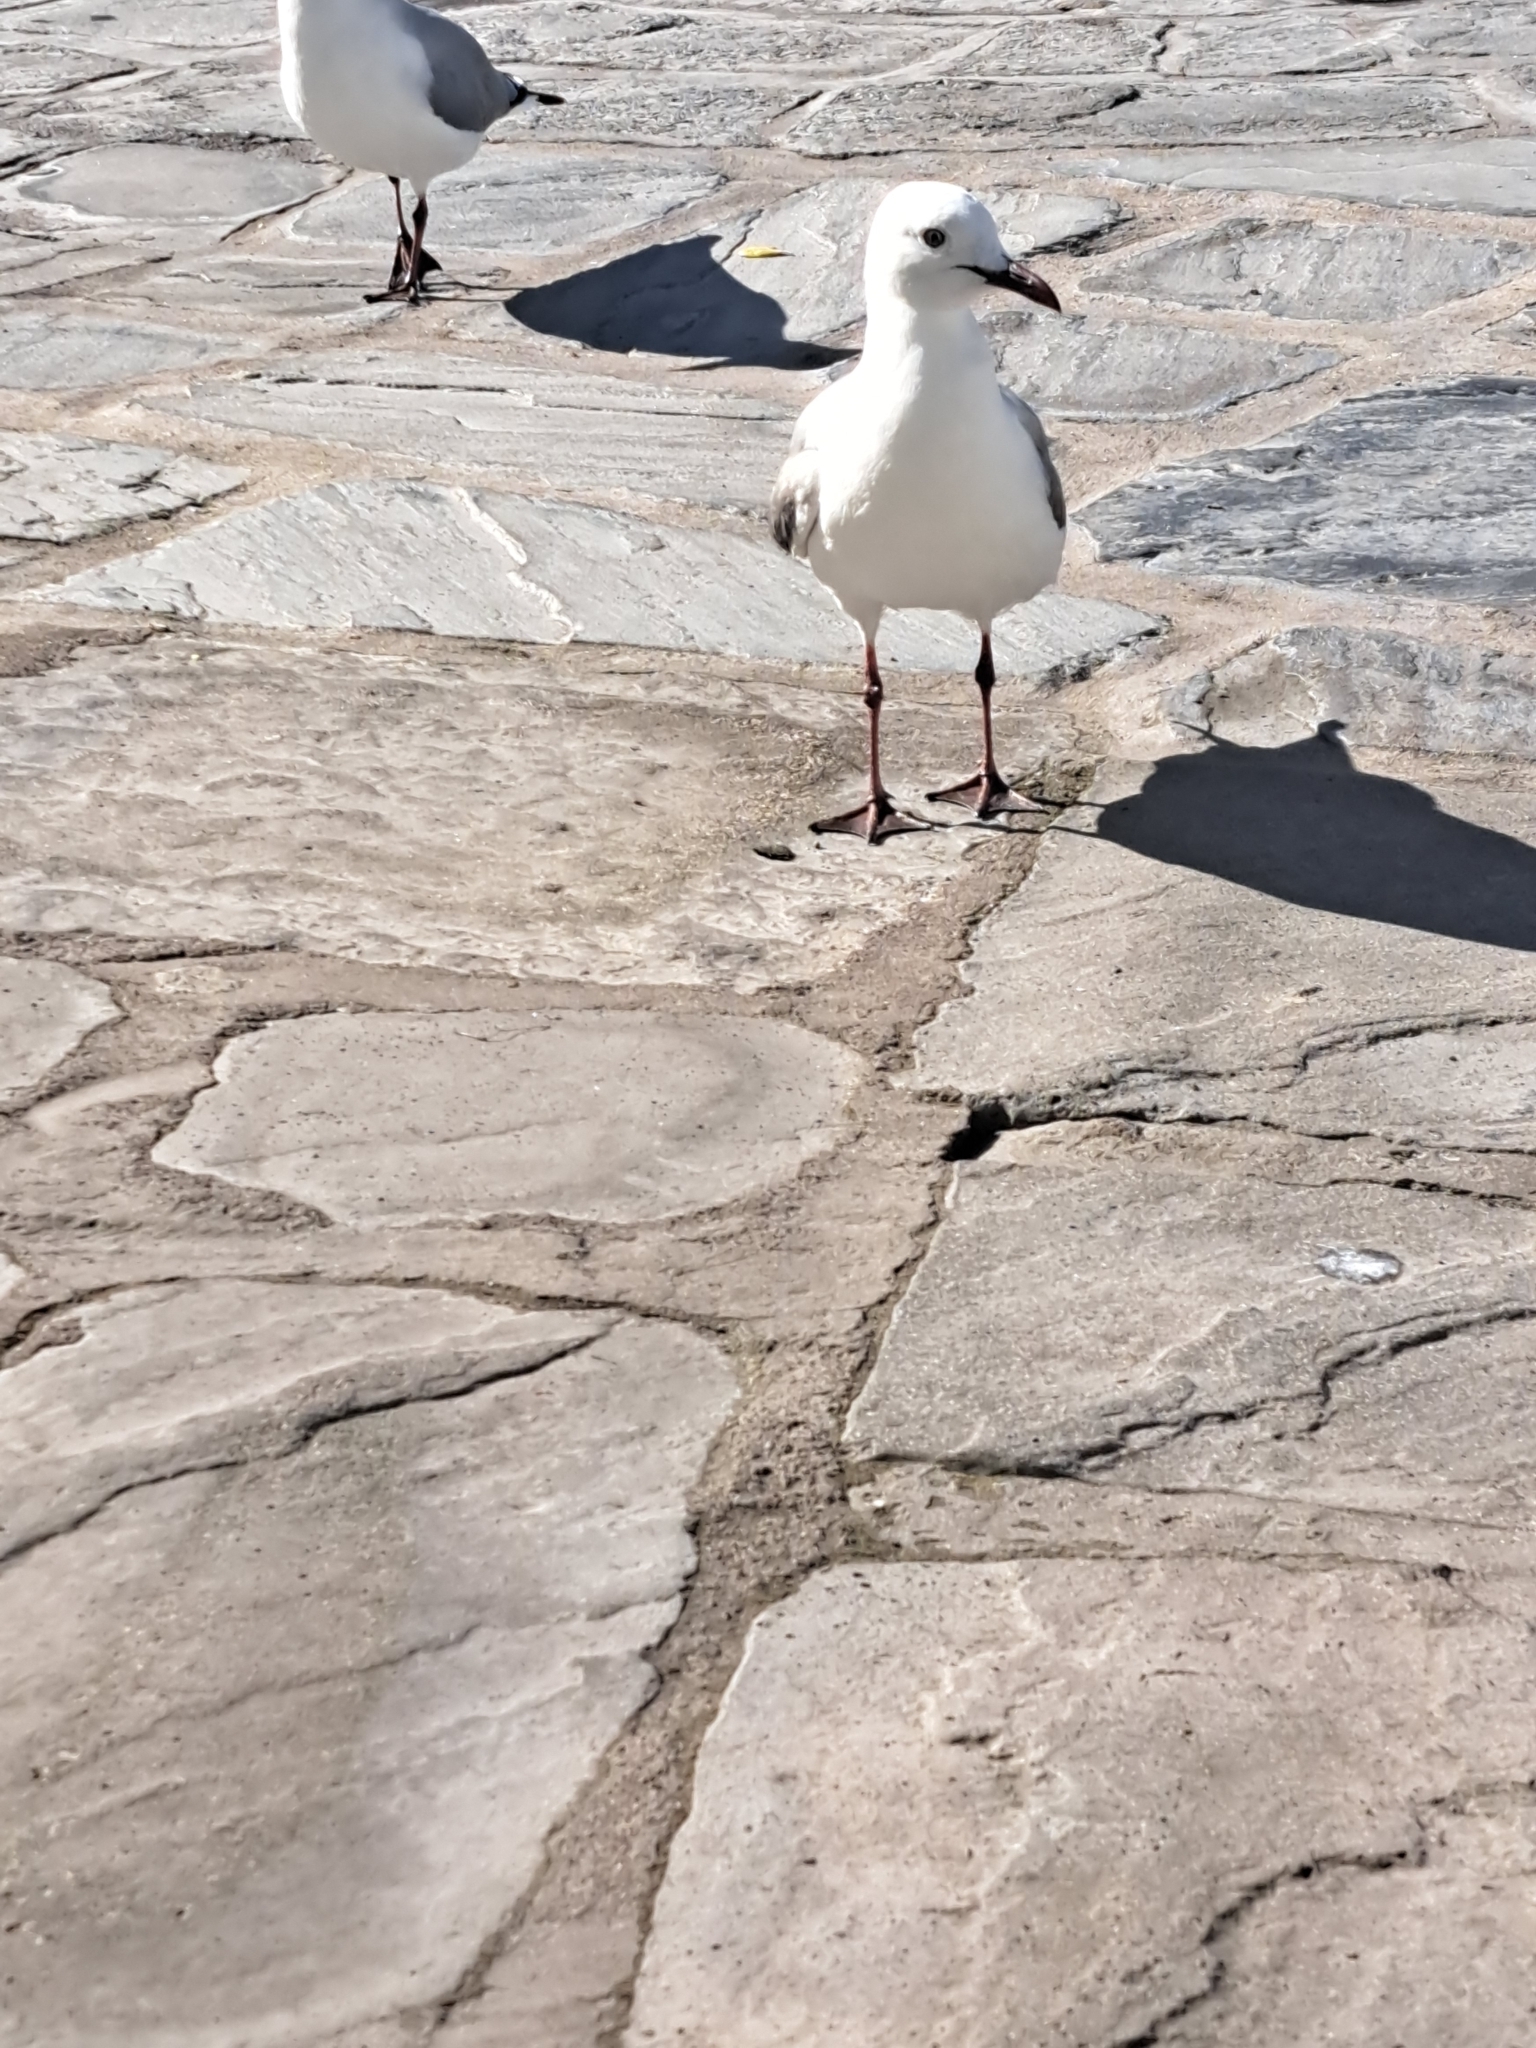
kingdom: Animalia
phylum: Chordata
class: Aves
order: Charadriiformes
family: Laridae
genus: Chroicocephalus
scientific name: Chroicocephalus hartlaubii
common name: Hartlaub's gull
